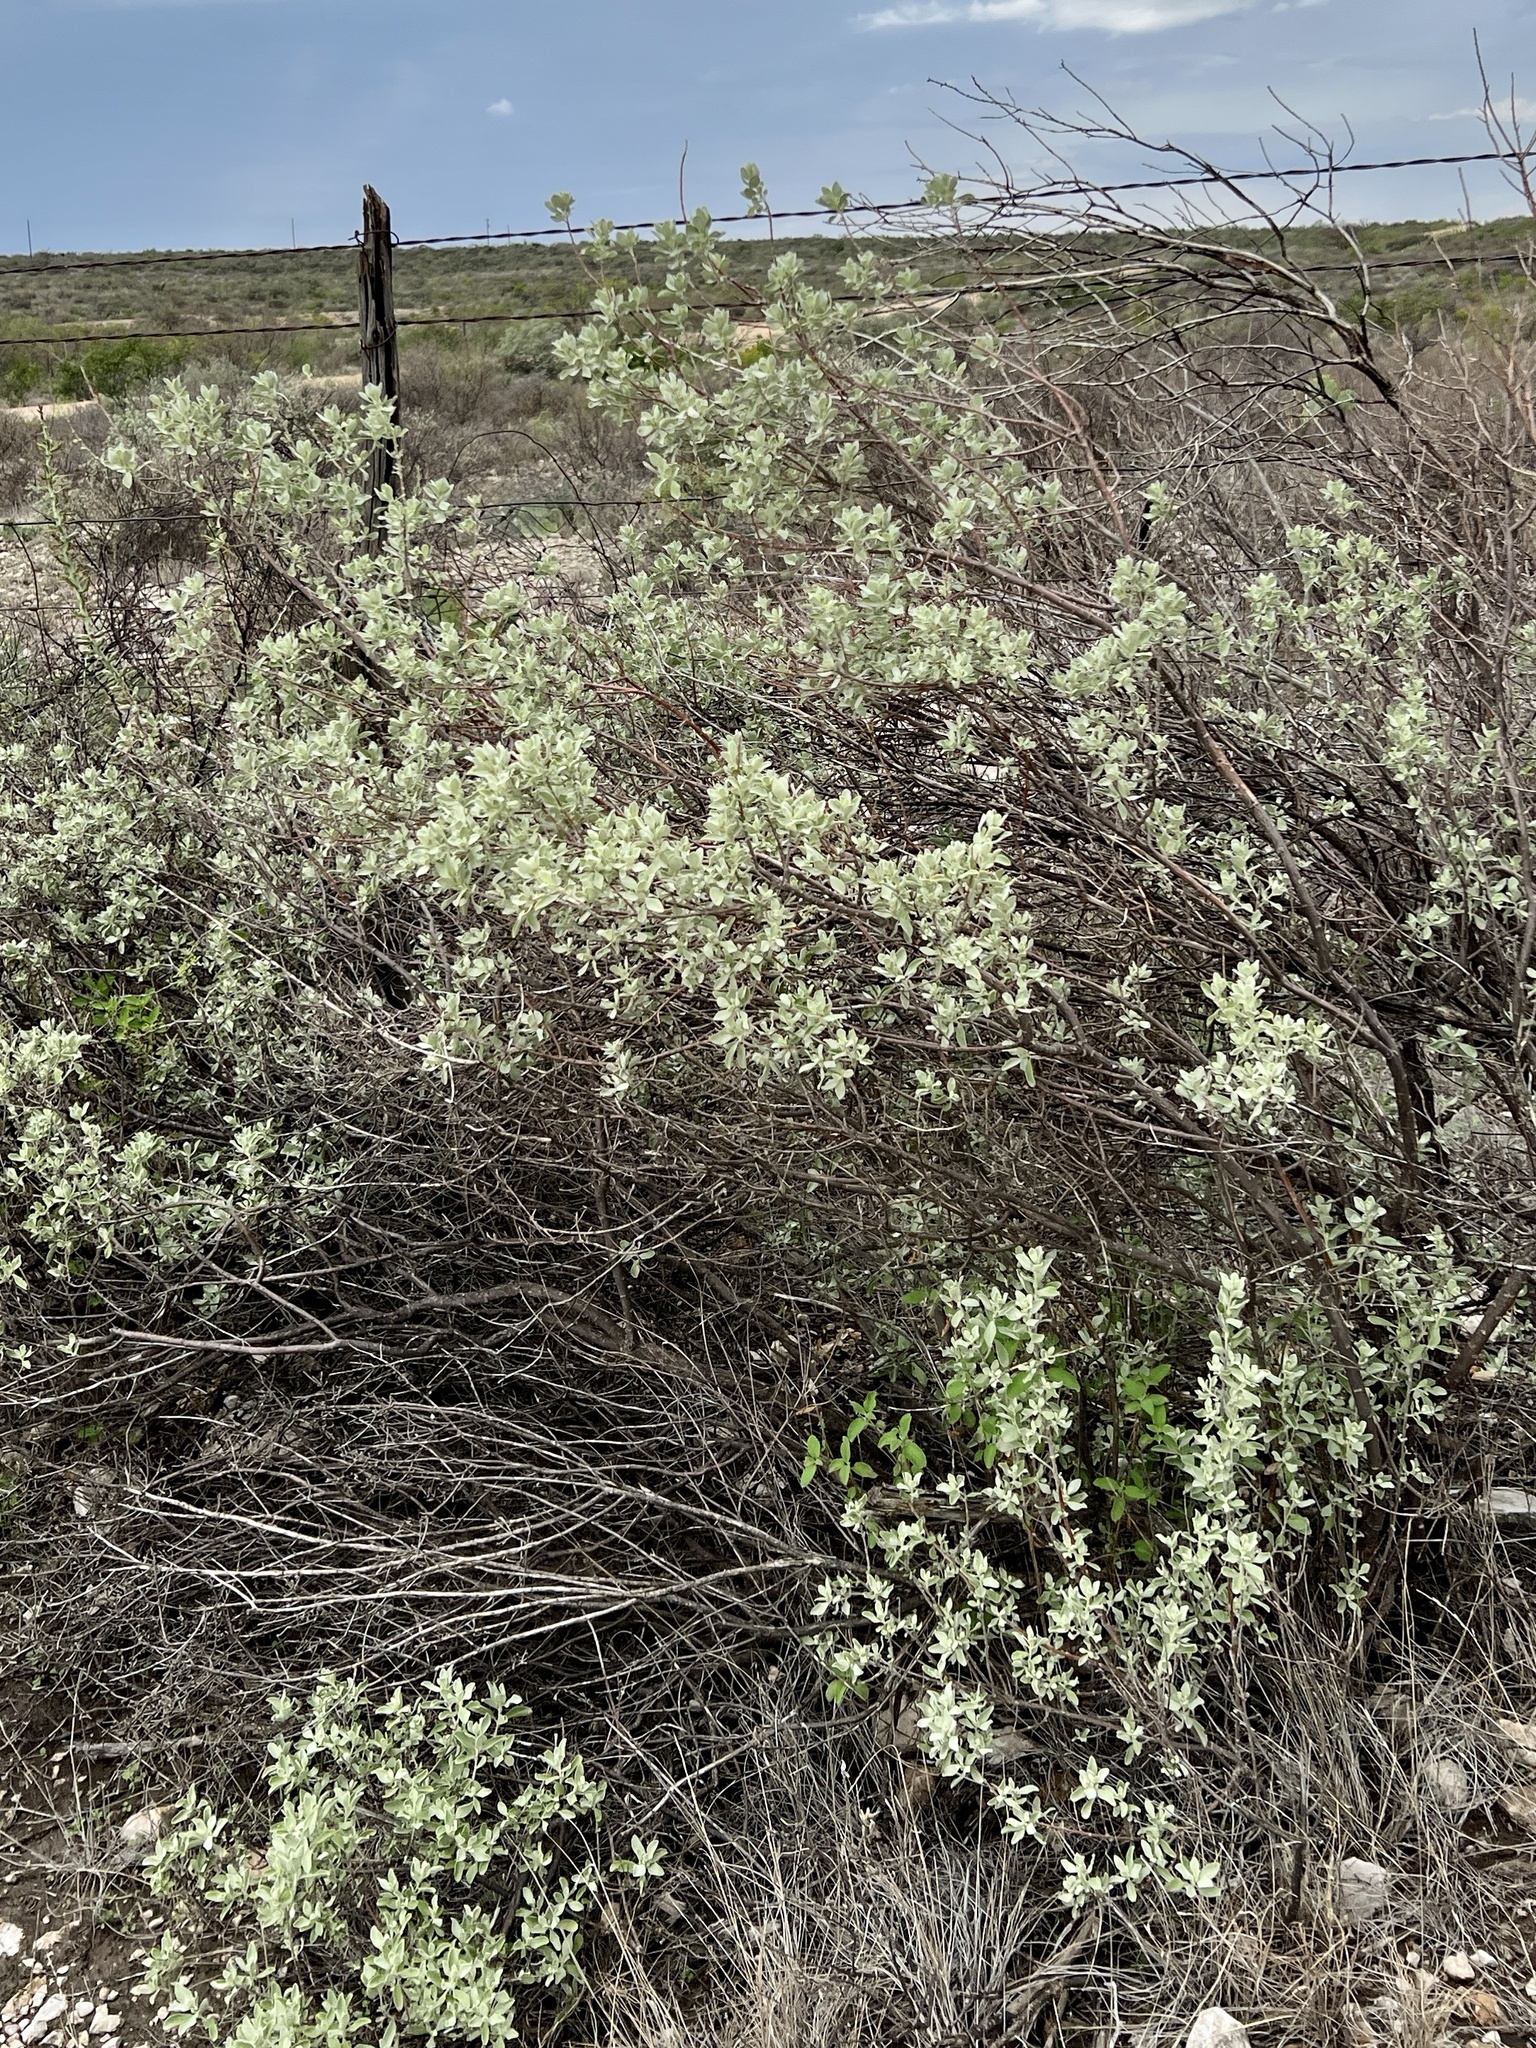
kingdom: Plantae
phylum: Tracheophyta
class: Magnoliopsida
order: Lamiales
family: Scrophulariaceae
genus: Leucophyllum
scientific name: Leucophyllum frutescens
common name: Texas silverleaf
